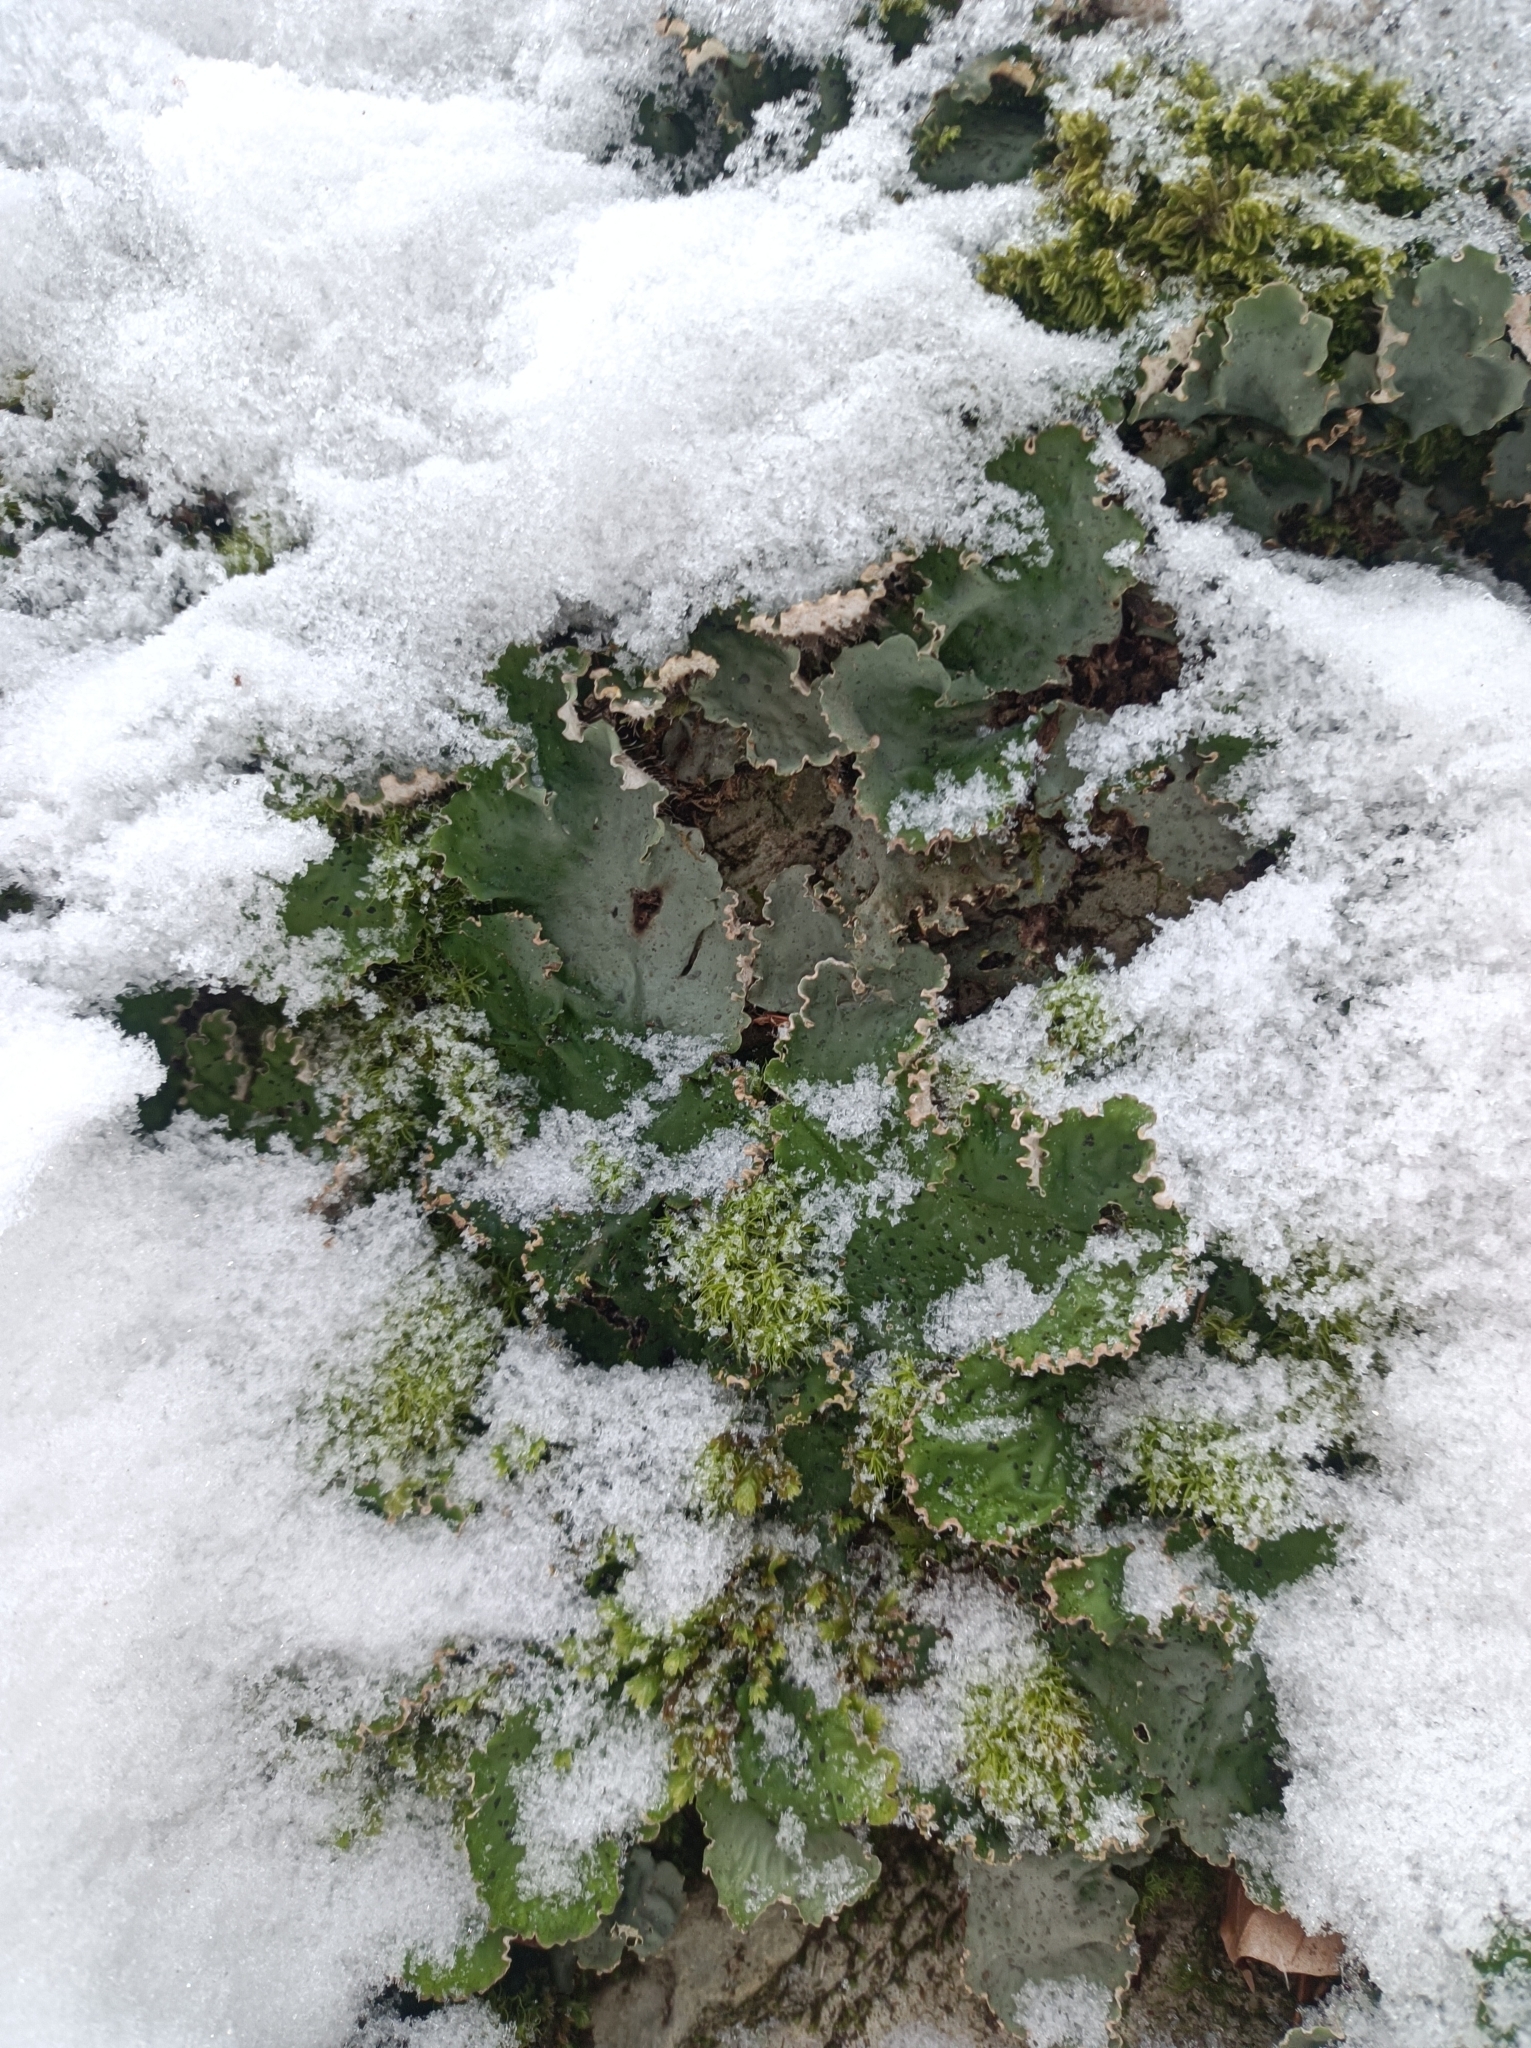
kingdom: Fungi
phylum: Ascomycota
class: Lecanoromycetes
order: Peltigerales
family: Peltigeraceae
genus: Peltigera
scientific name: Peltigera leucophlebia
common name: Ruffled freckle pelt lichen
